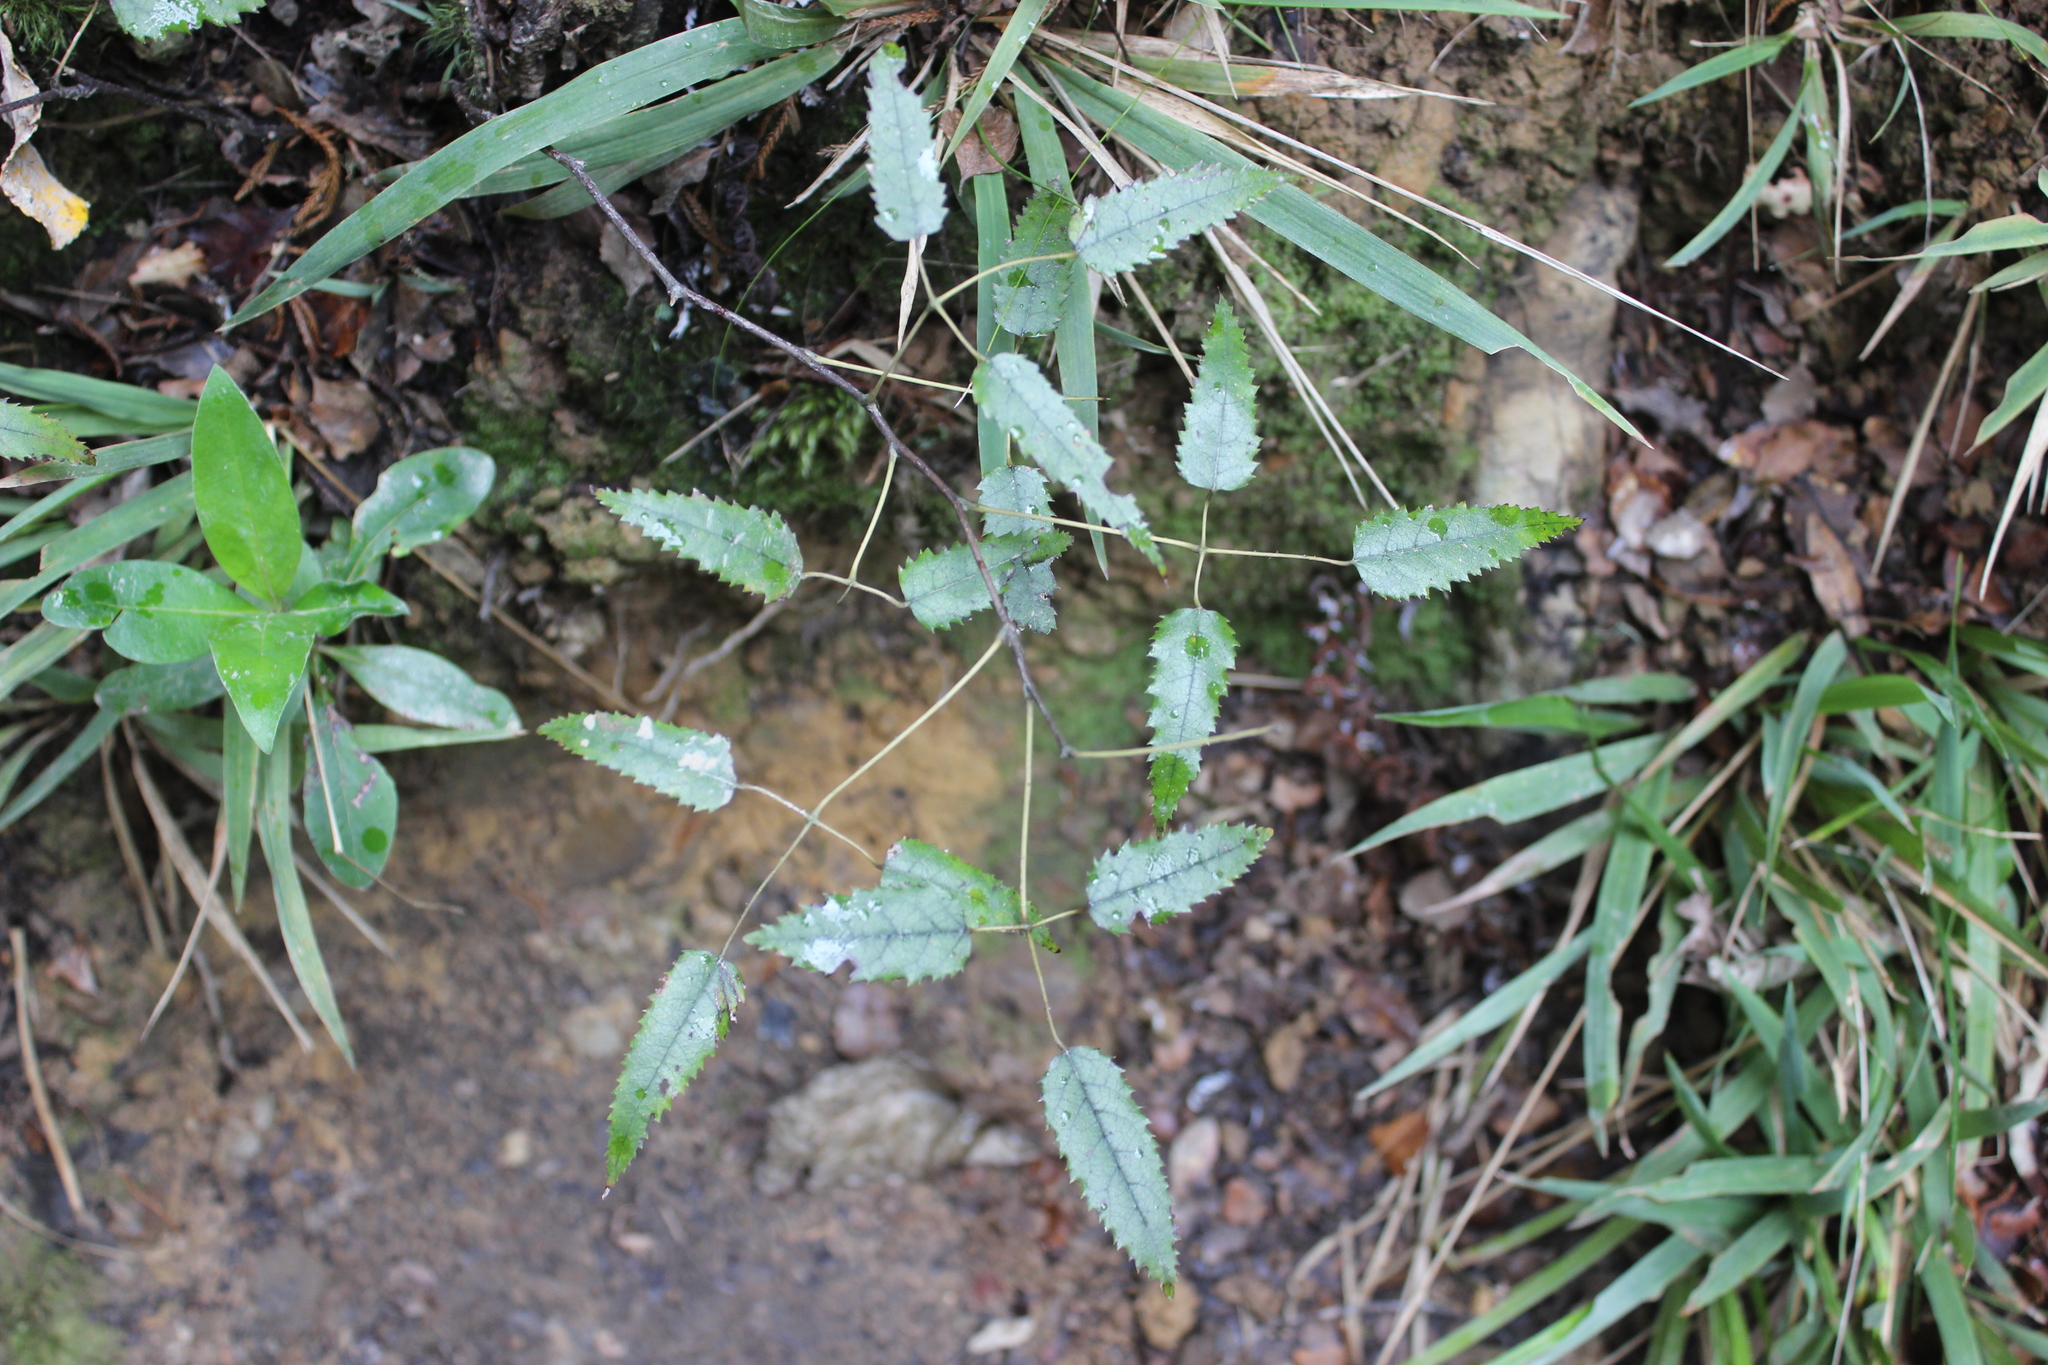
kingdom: Plantae
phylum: Tracheophyta
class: Magnoliopsida
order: Rosales
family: Rosaceae
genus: Rubus
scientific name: Rubus cissoides
